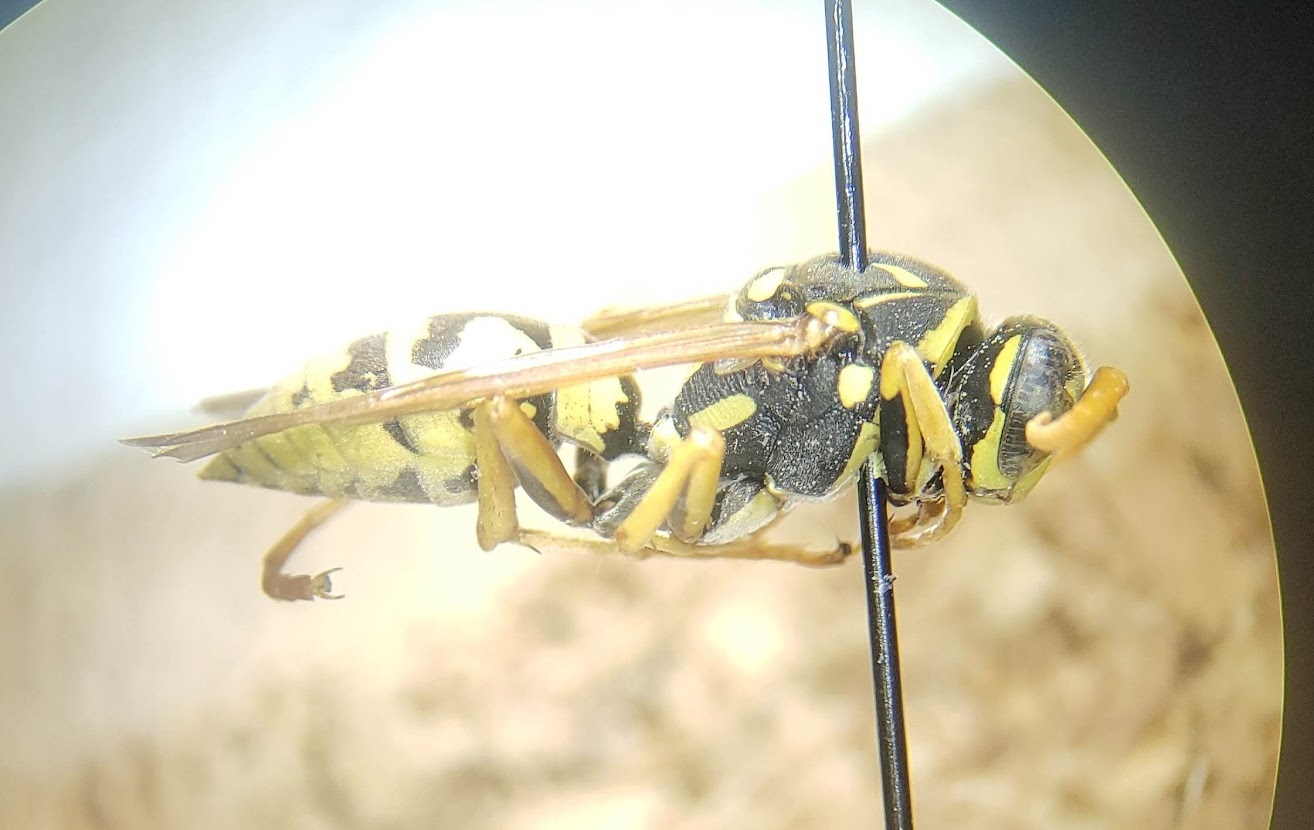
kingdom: Animalia
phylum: Arthropoda
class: Insecta
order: Hymenoptera
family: Eumenidae
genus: Polistes
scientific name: Polistes dominula
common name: Paper wasp
